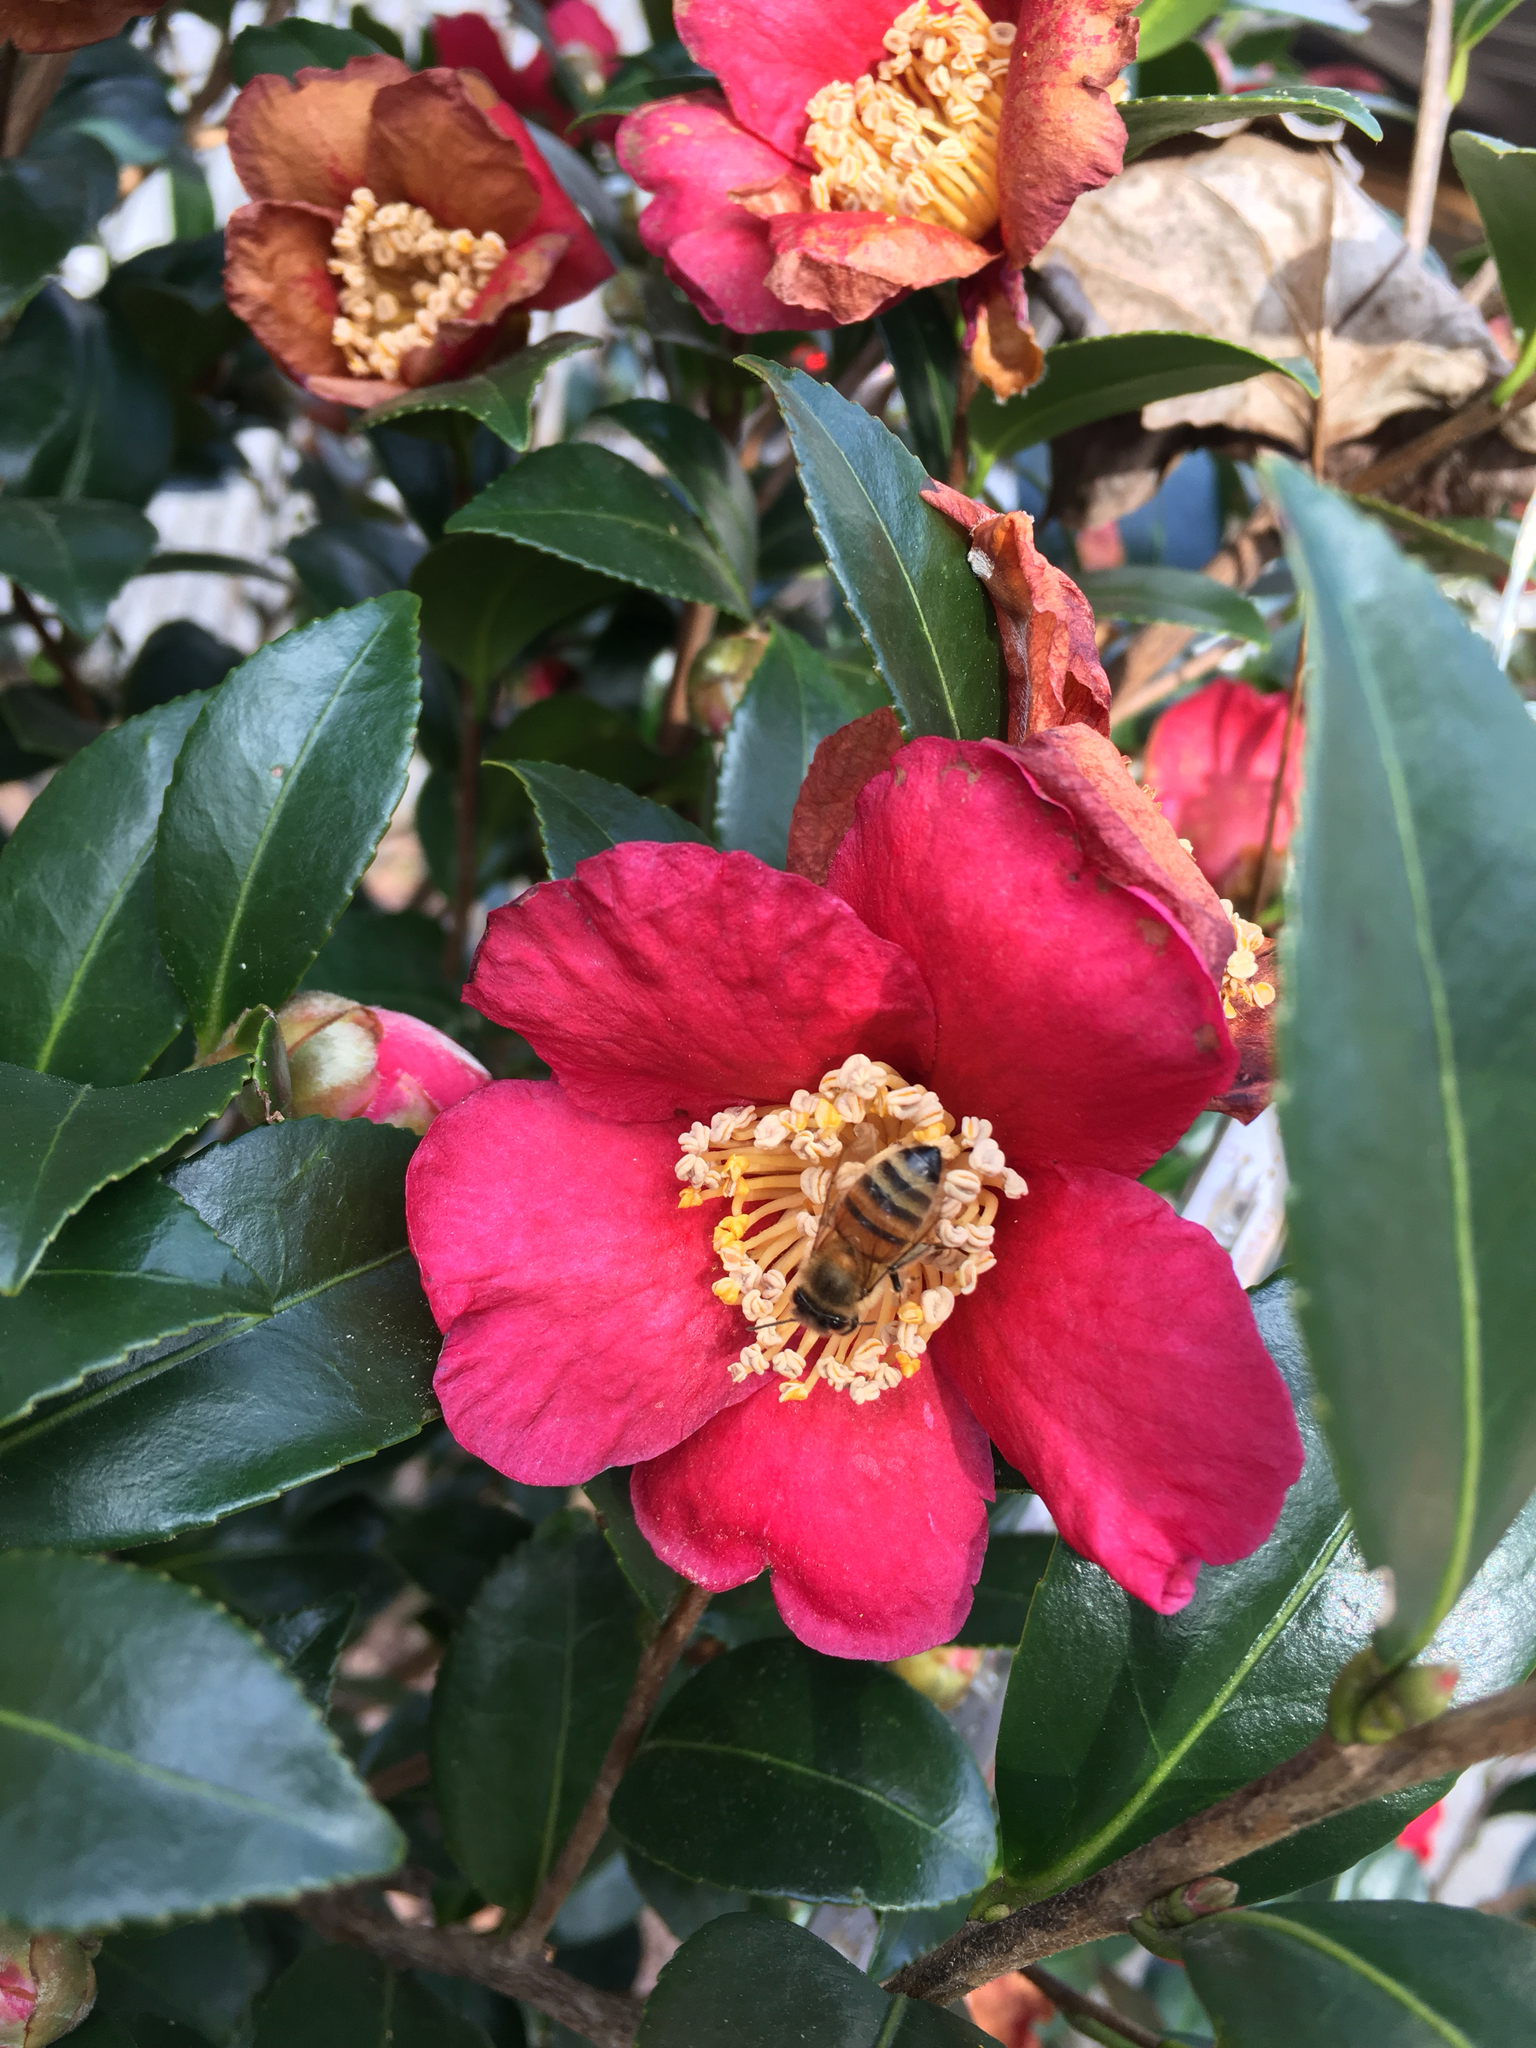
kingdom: Animalia
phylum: Arthropoda
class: Insecta
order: Hymenoptera
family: Apidae
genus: Apis
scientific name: Apis mellifera
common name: Honey bee
